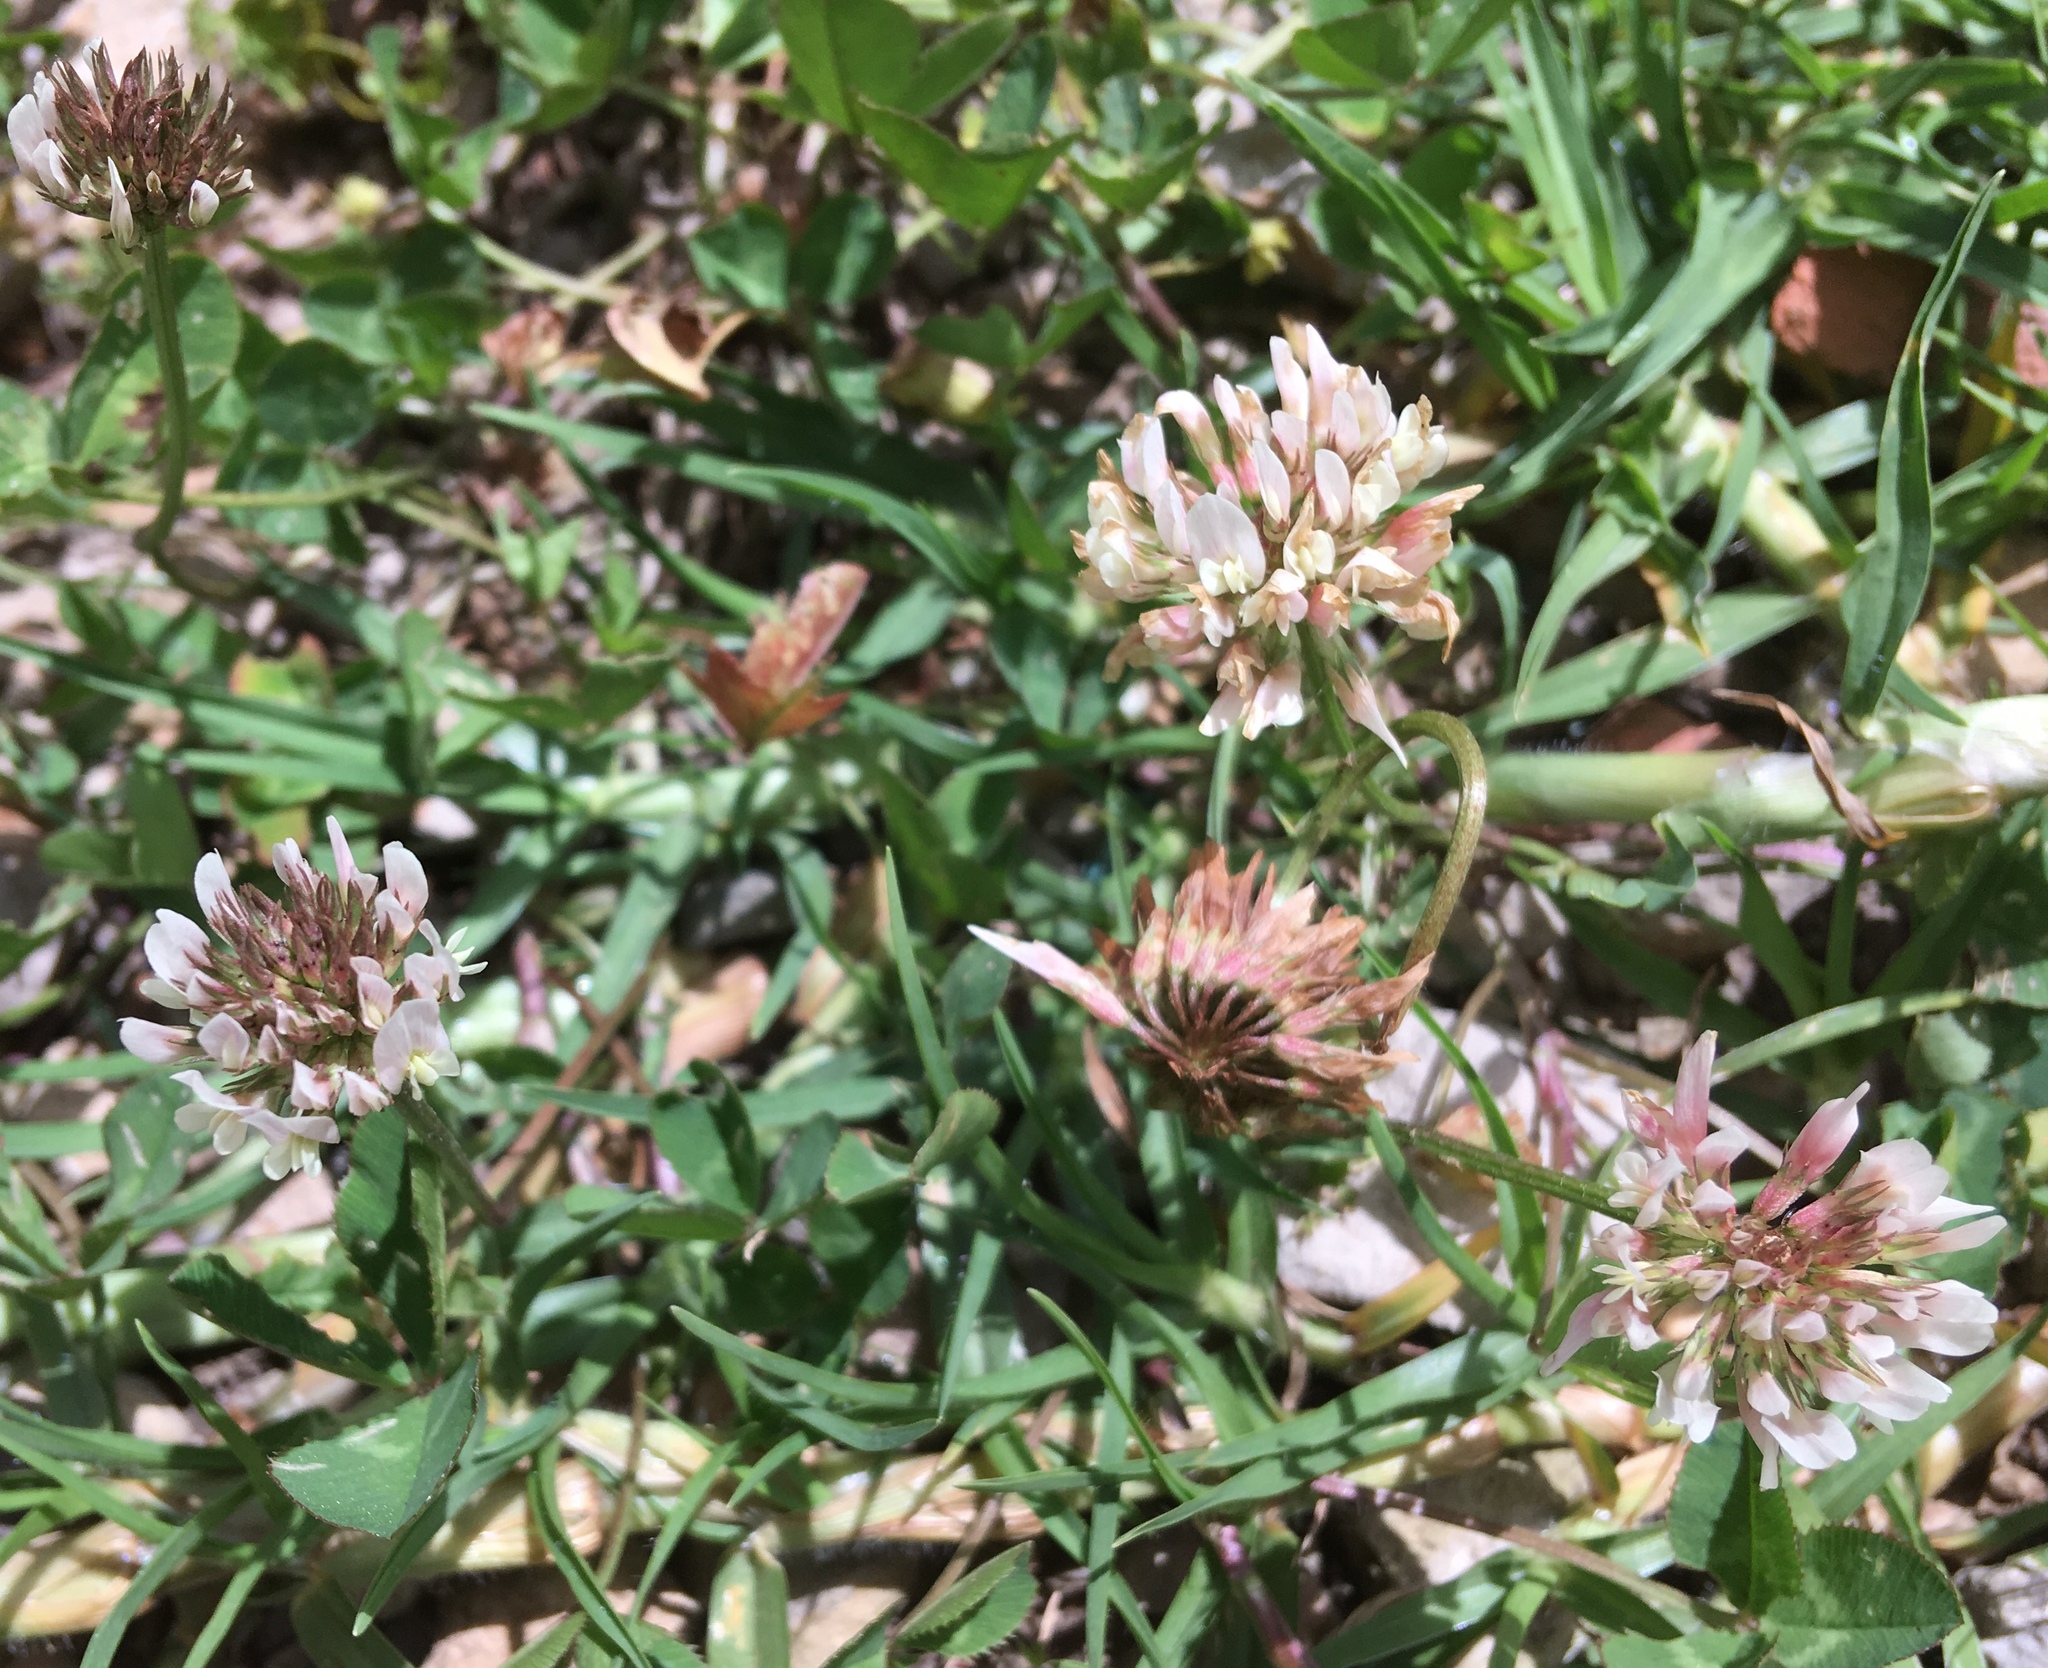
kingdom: Plantae
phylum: Tracheophyta
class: Magnoliopsida
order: Fabales
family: Fabaceae
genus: Trifolium
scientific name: Trifolium repens
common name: White clover
